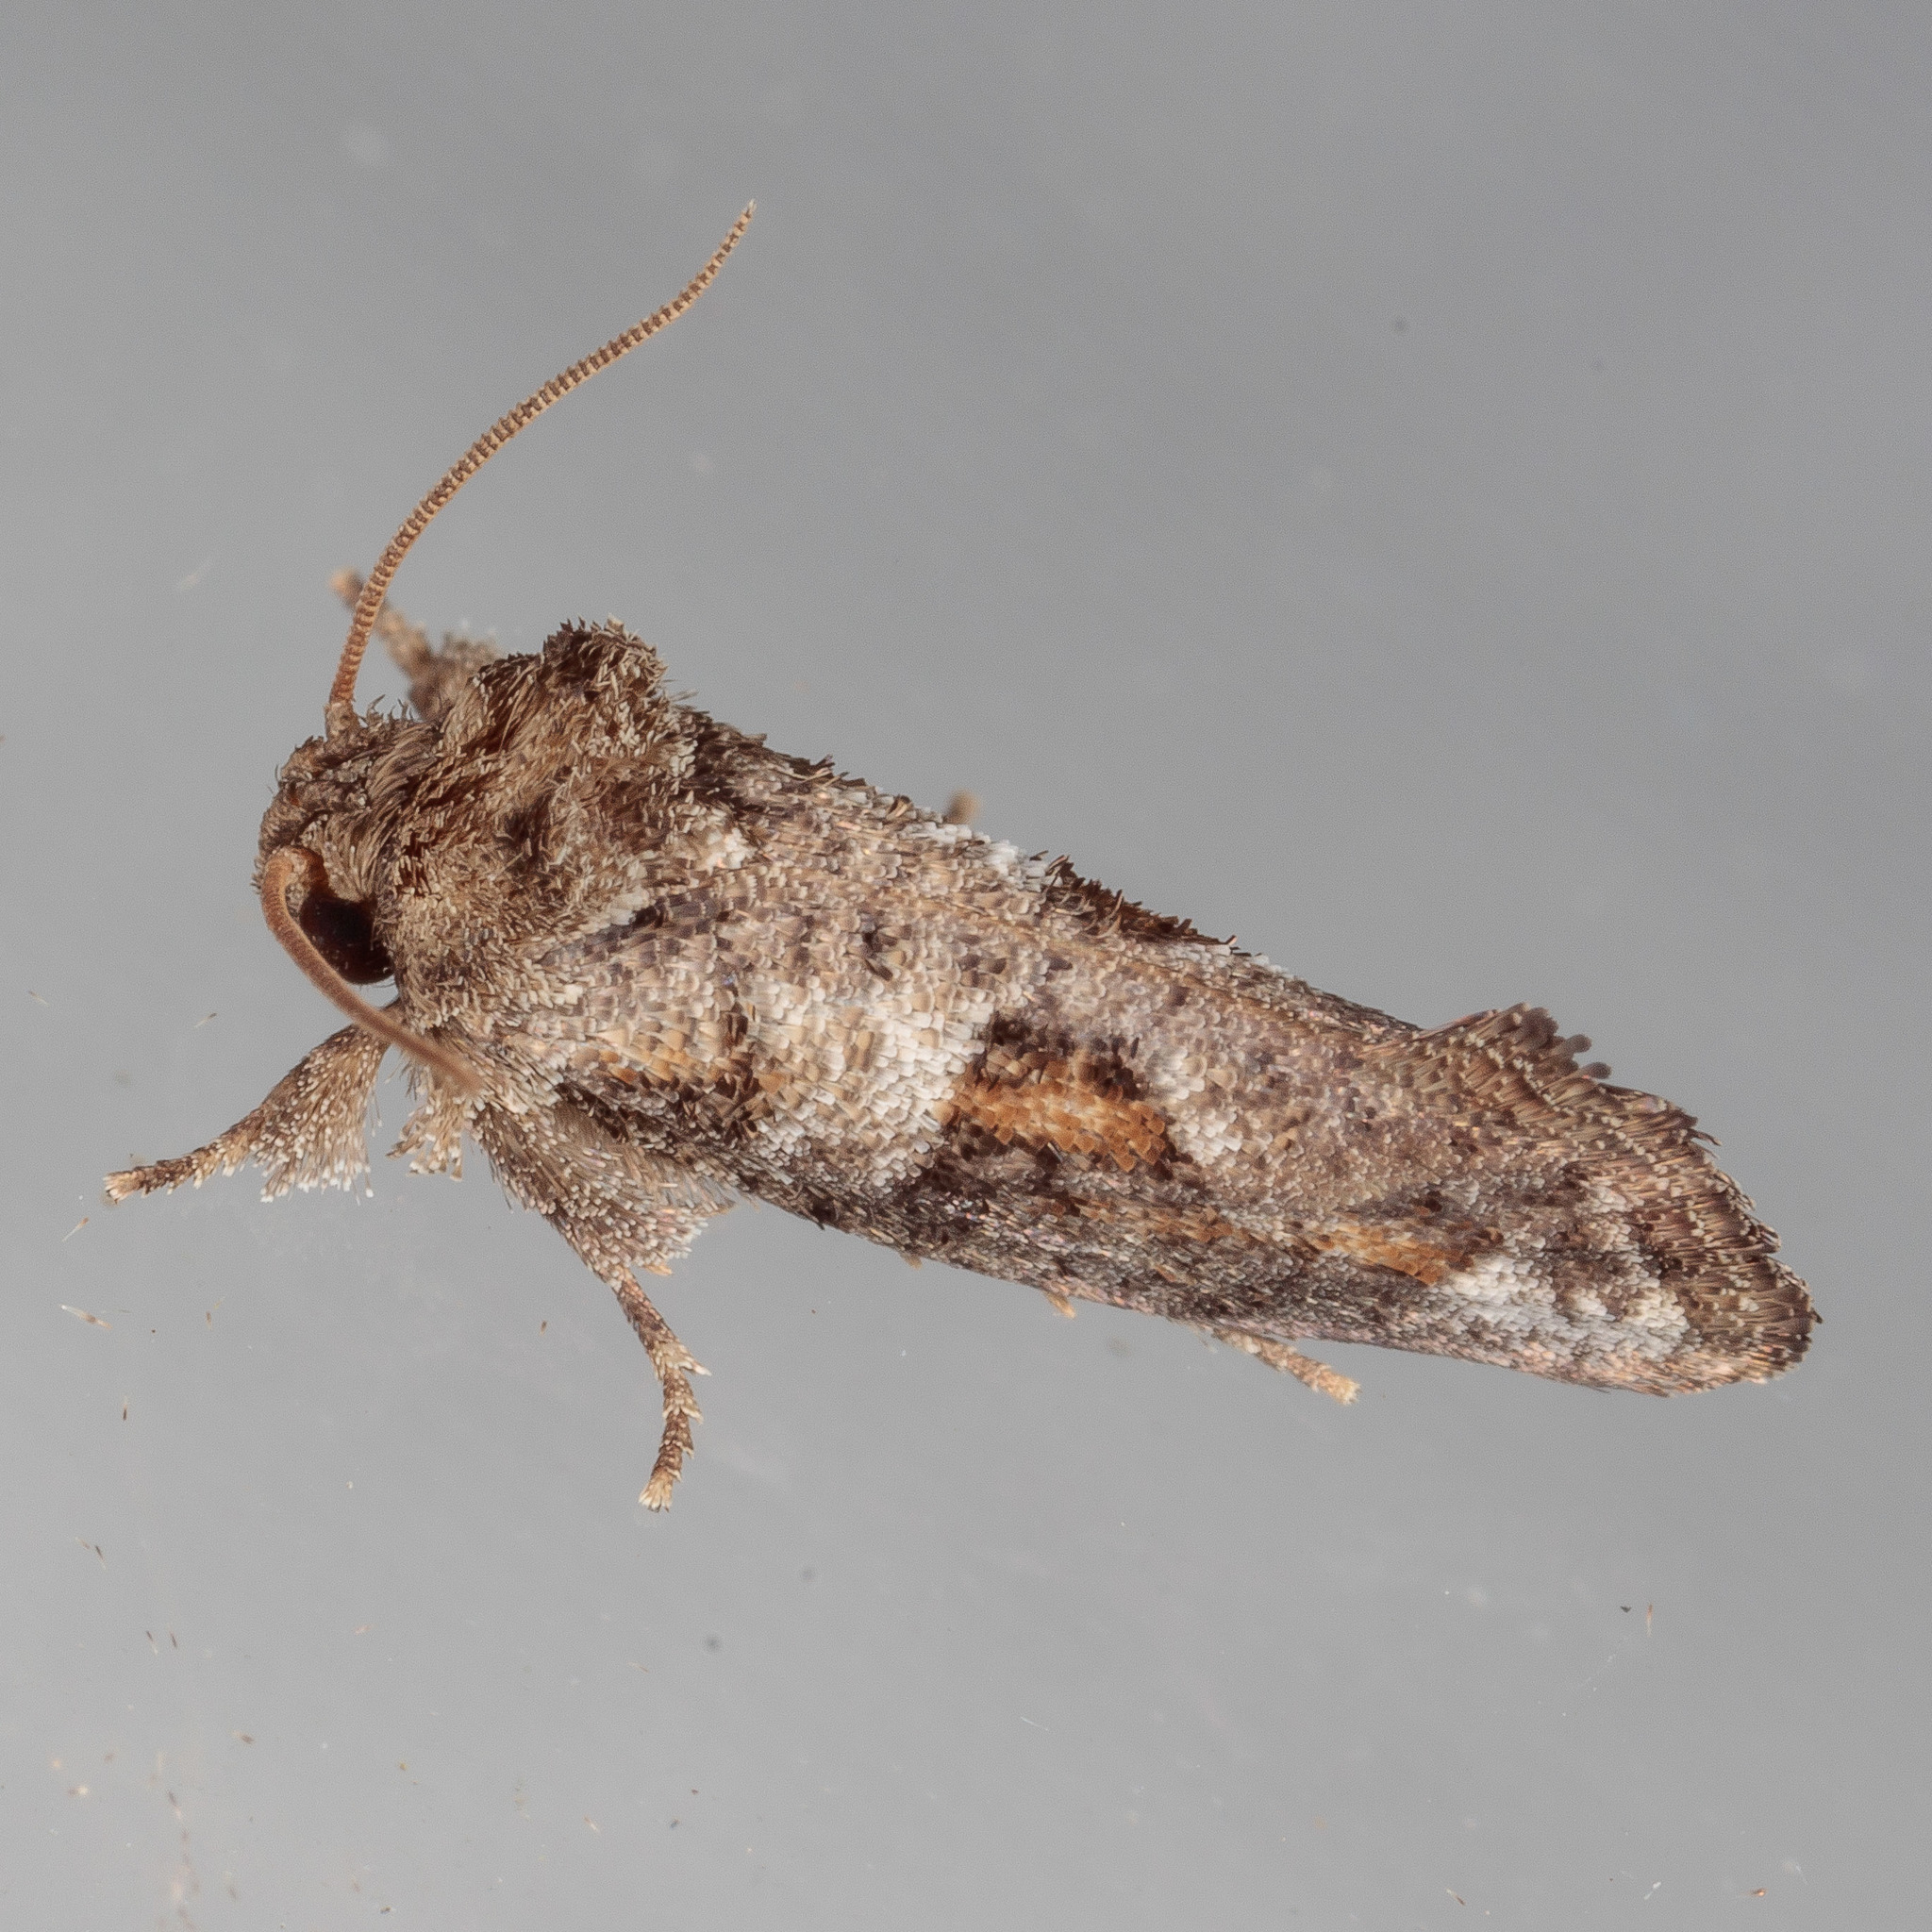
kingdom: Animalia
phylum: Arthropoda
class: Insecta
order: Lepidoptera
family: Tineidae
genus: Acrolophus
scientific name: Acrolophus piger
